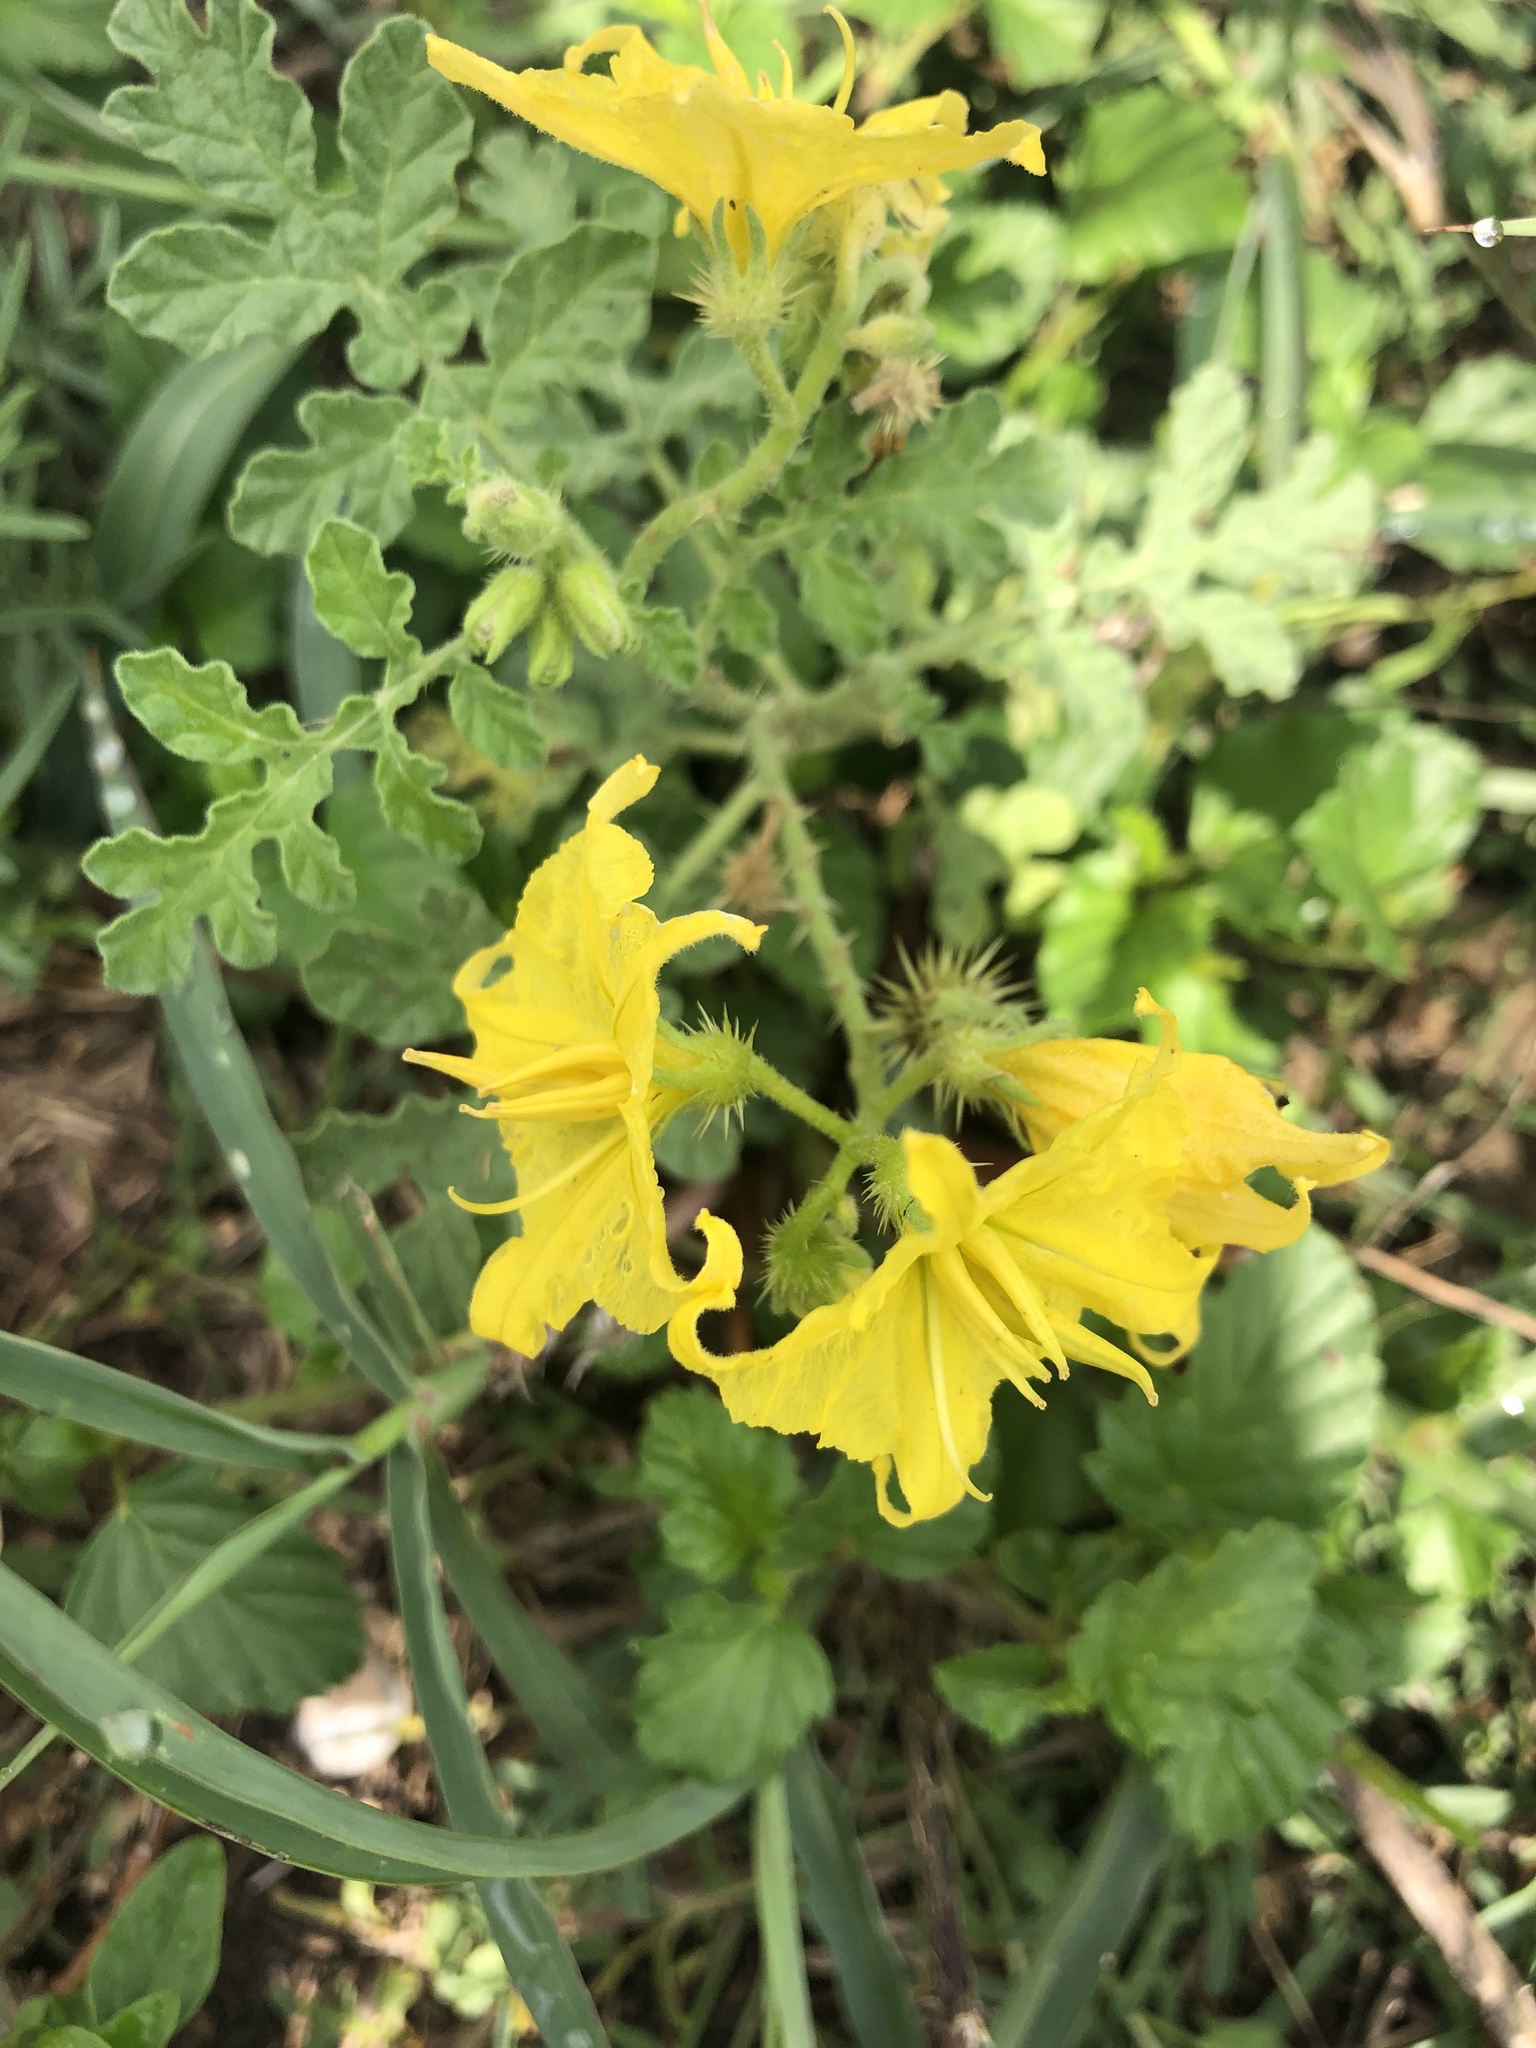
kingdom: Plantae
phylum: Tracheophyta
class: Magnoliopsida
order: Solanales
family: Solanaceae
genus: Solanum
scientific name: Solanum angustifolium
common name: Buffalobur nightshade
